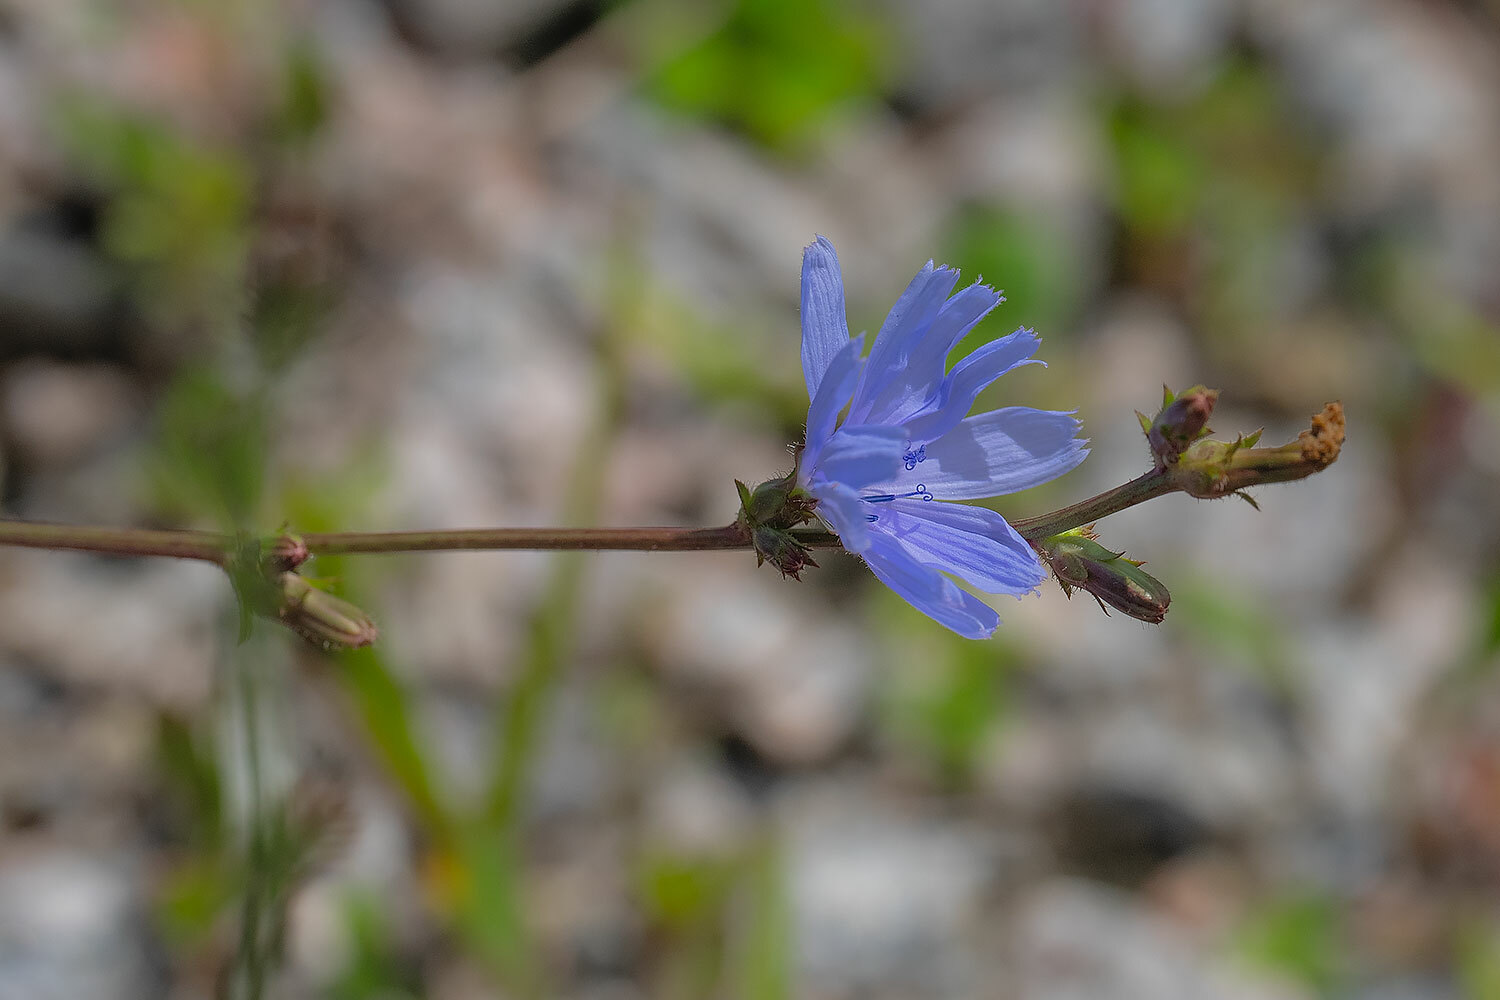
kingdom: Plantae
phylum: Tracheophyta
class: Magnoliopsida
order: Asterales
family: Asteraceae
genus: Cichorium
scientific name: Cichorium intybus
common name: Chicory
